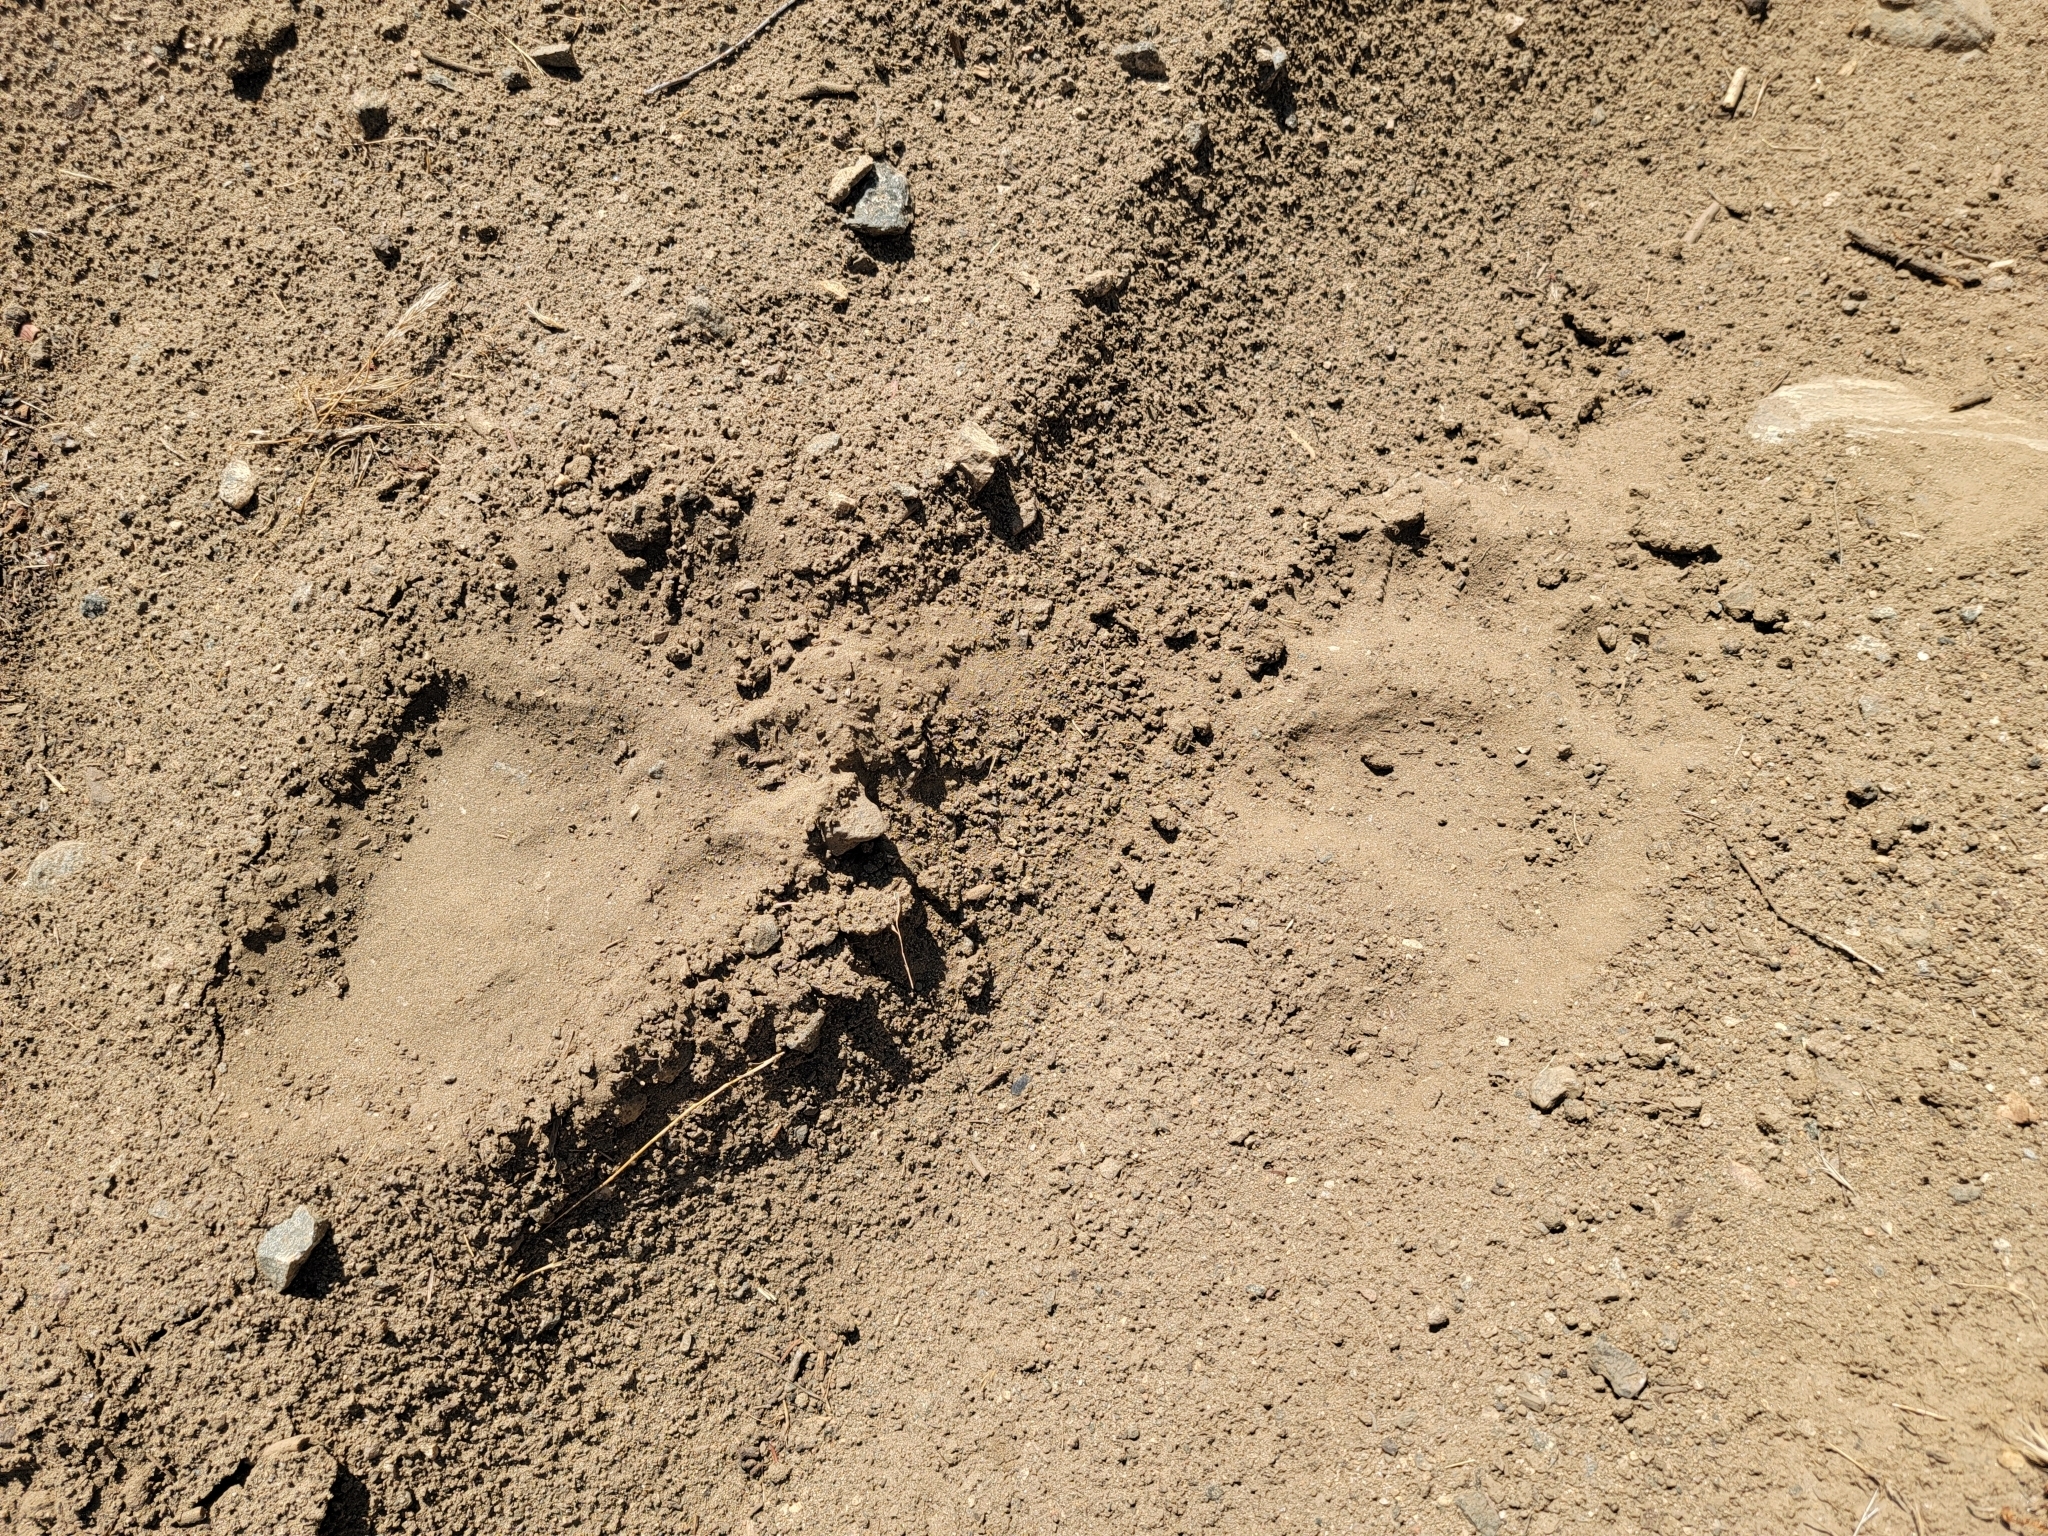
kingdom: Animalia
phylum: Chordata
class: Mammalia
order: Carnivora
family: Ursidae
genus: Ursus
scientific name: Ursus americanus
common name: American black bear
